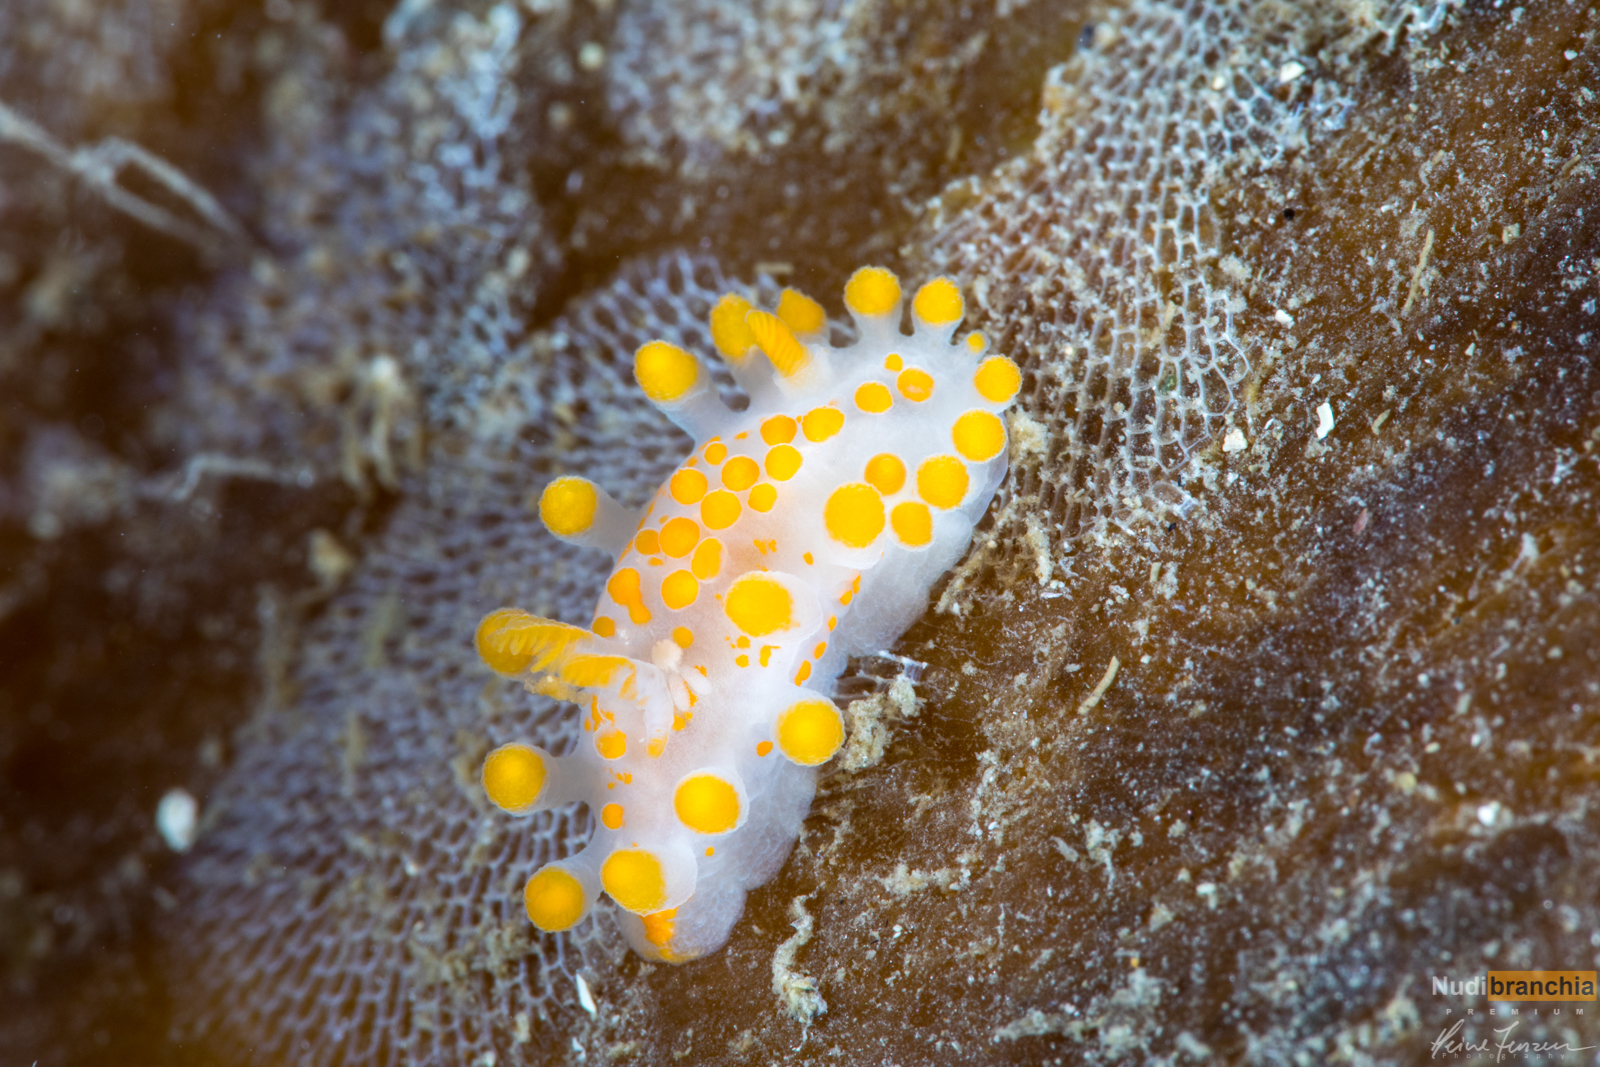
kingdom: Animalia
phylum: Mollusca
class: Gastropoda
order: Nudibranchia
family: Polyceridae
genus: Limacia
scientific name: Limacia clavigera
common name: Orange-clubbed sea slug
